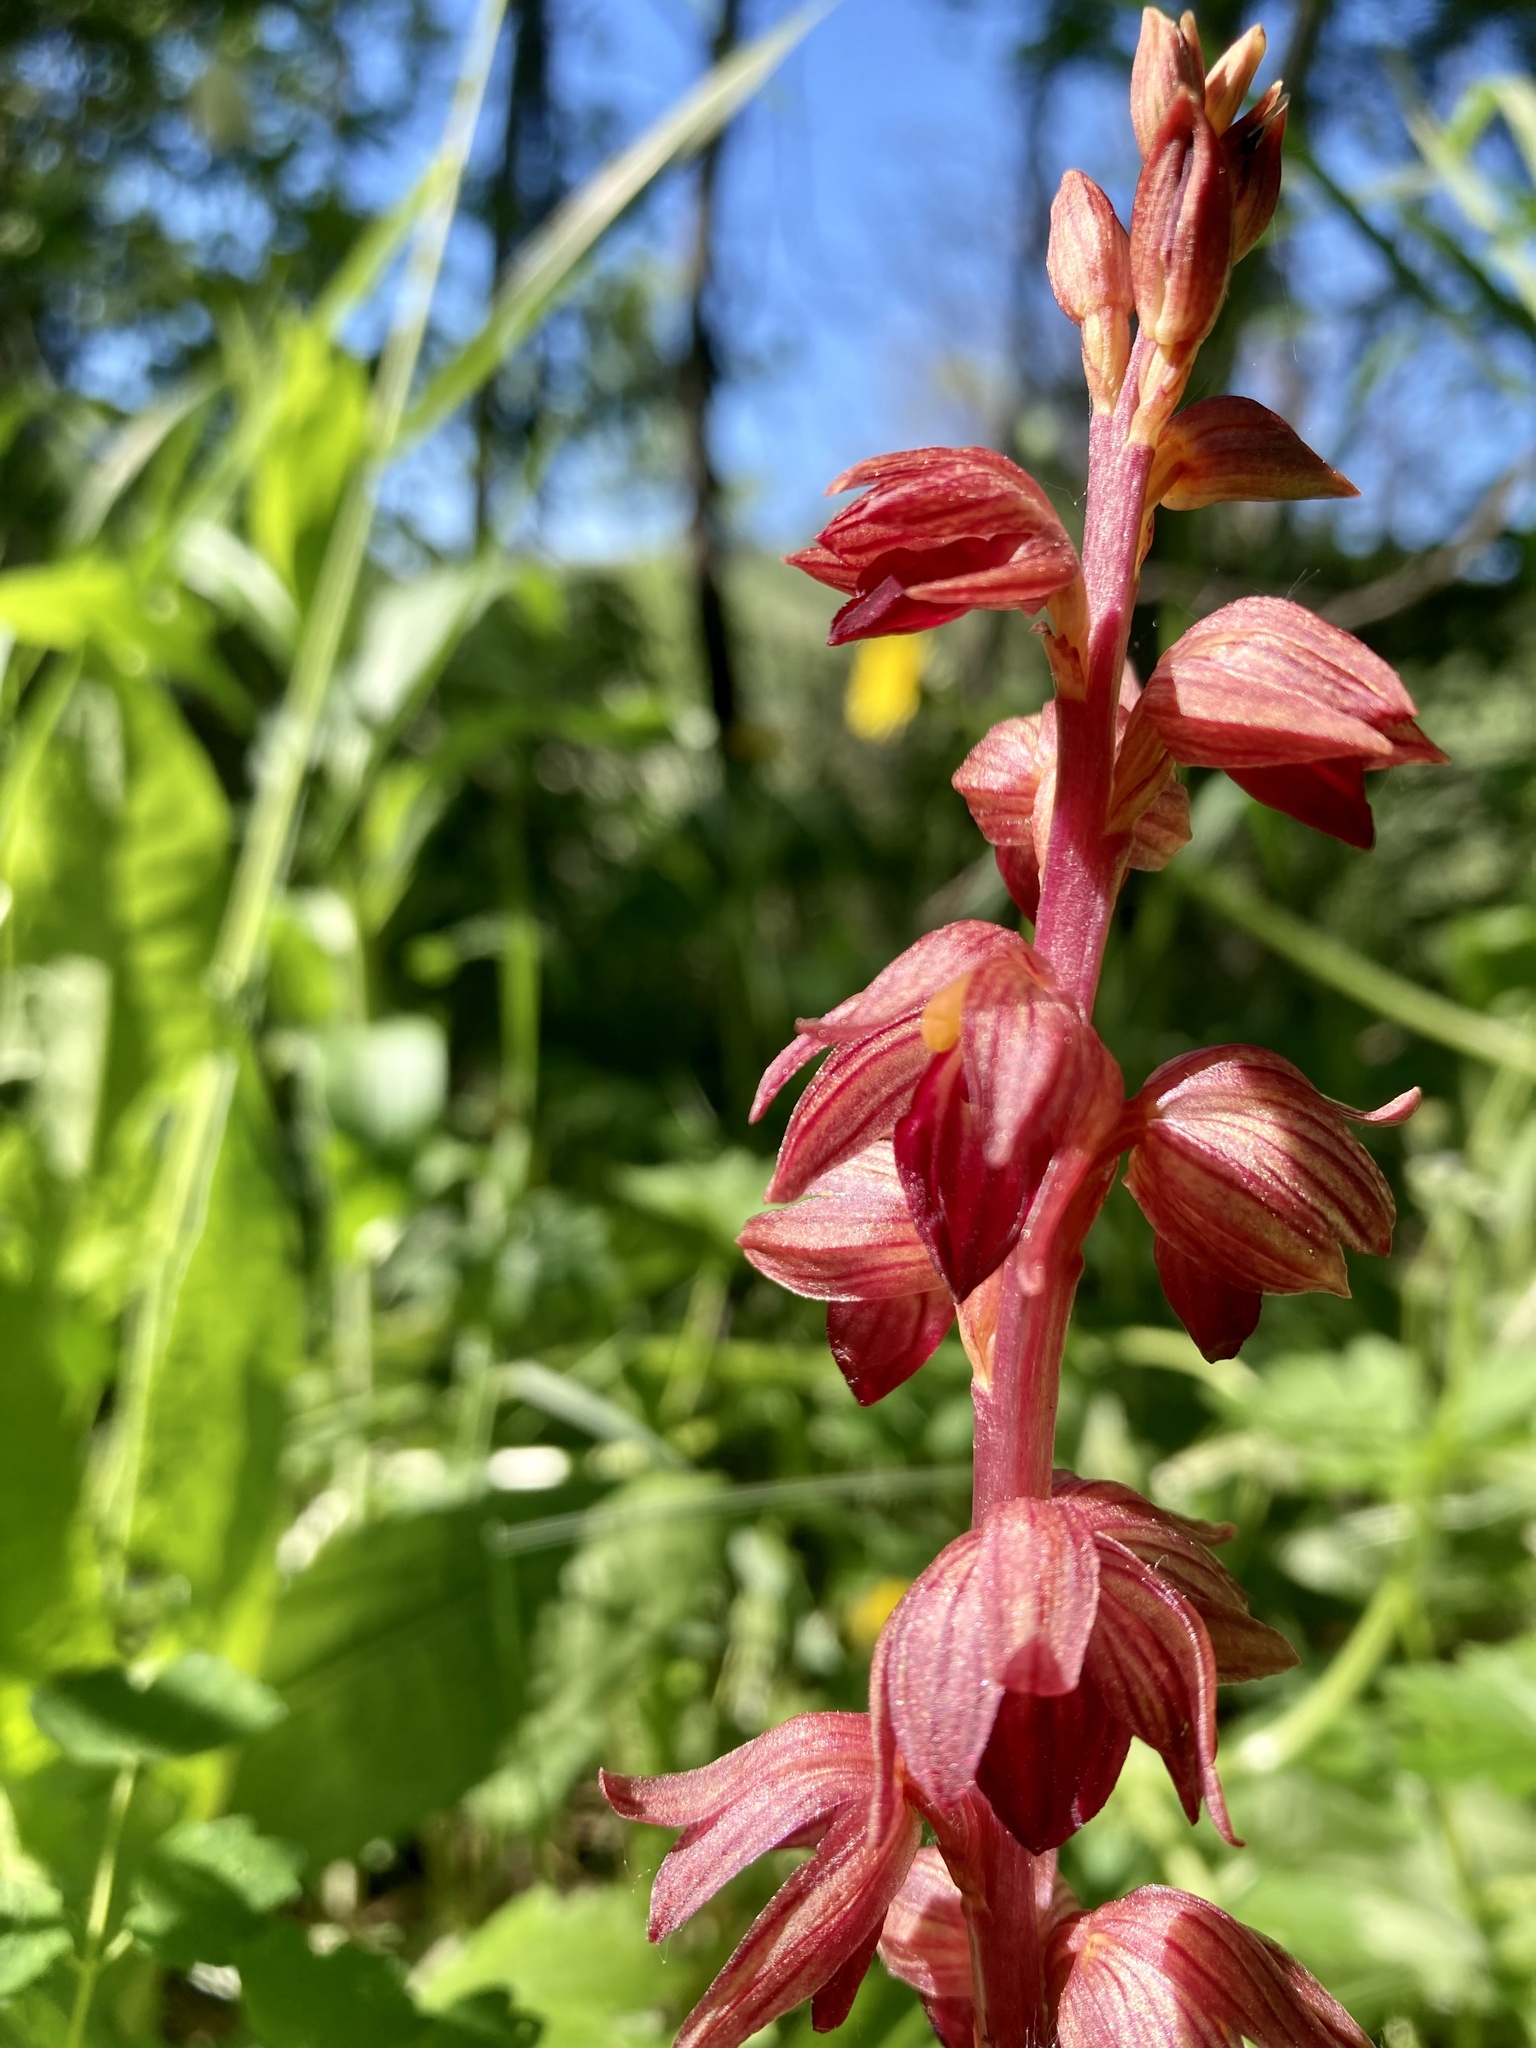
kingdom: Plantae
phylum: Tracheophyta
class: Liliopsida
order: Asparagales
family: Orchidaceae
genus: Corallorhiza
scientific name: Corallorhiza striata
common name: Hooded coralroot
